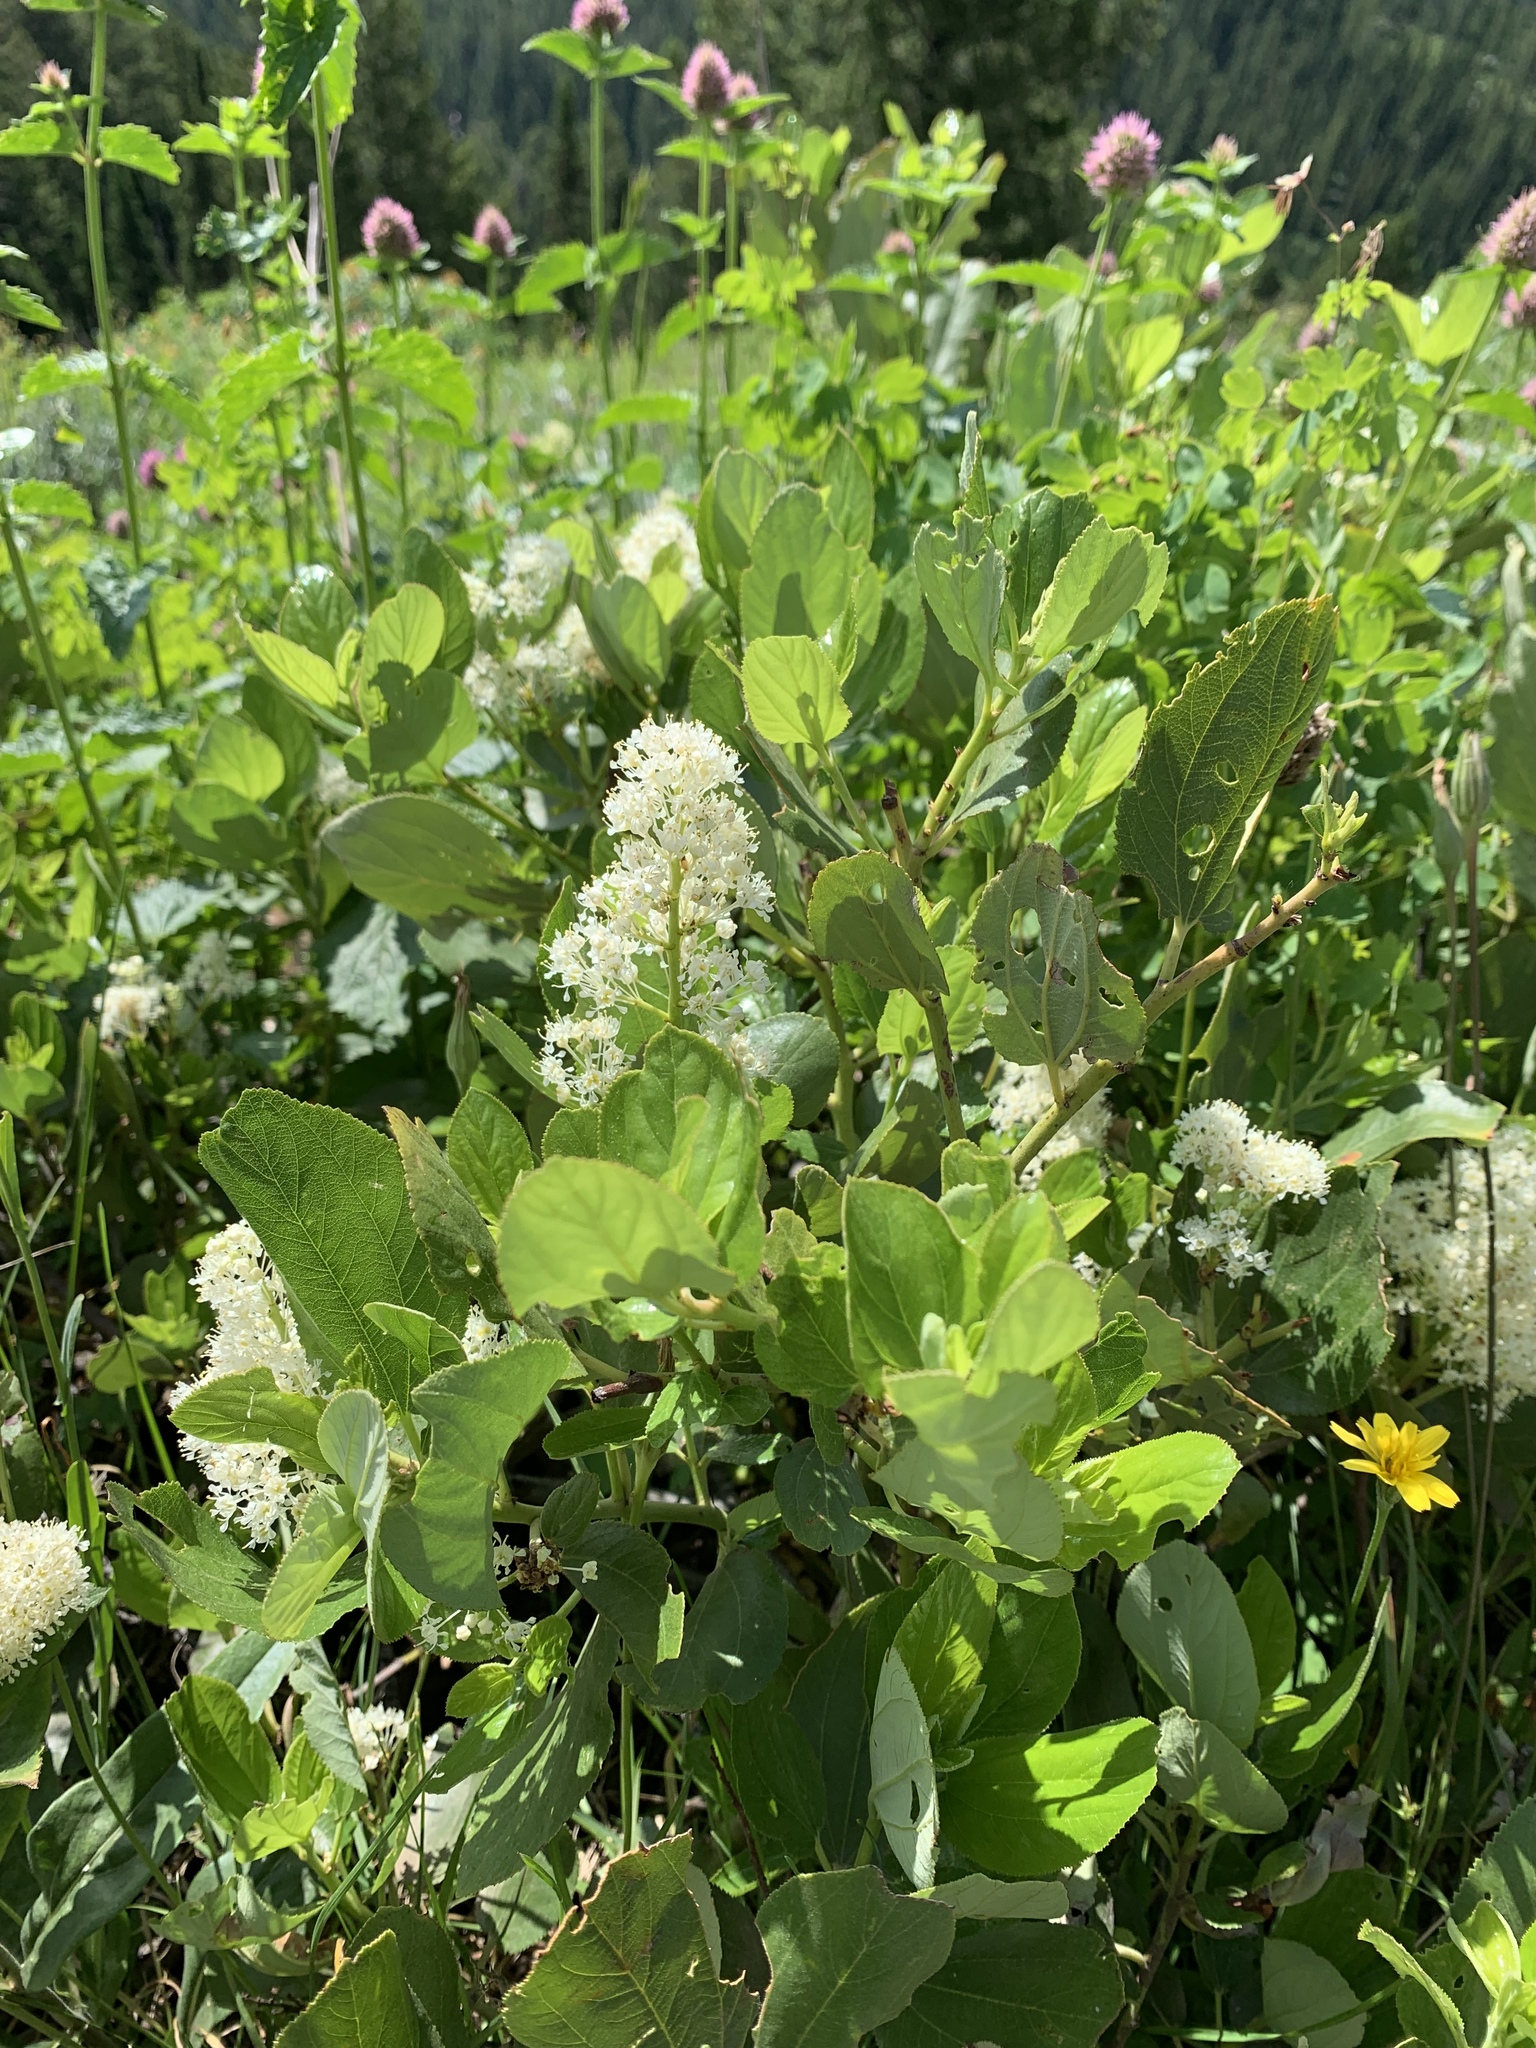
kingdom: Plantae
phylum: Tracheophyta
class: Magnoliopsida
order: Rosales
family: Rhamnaceae
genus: Ceanothus
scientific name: Ceanothus velutinus
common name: Snowbrush
